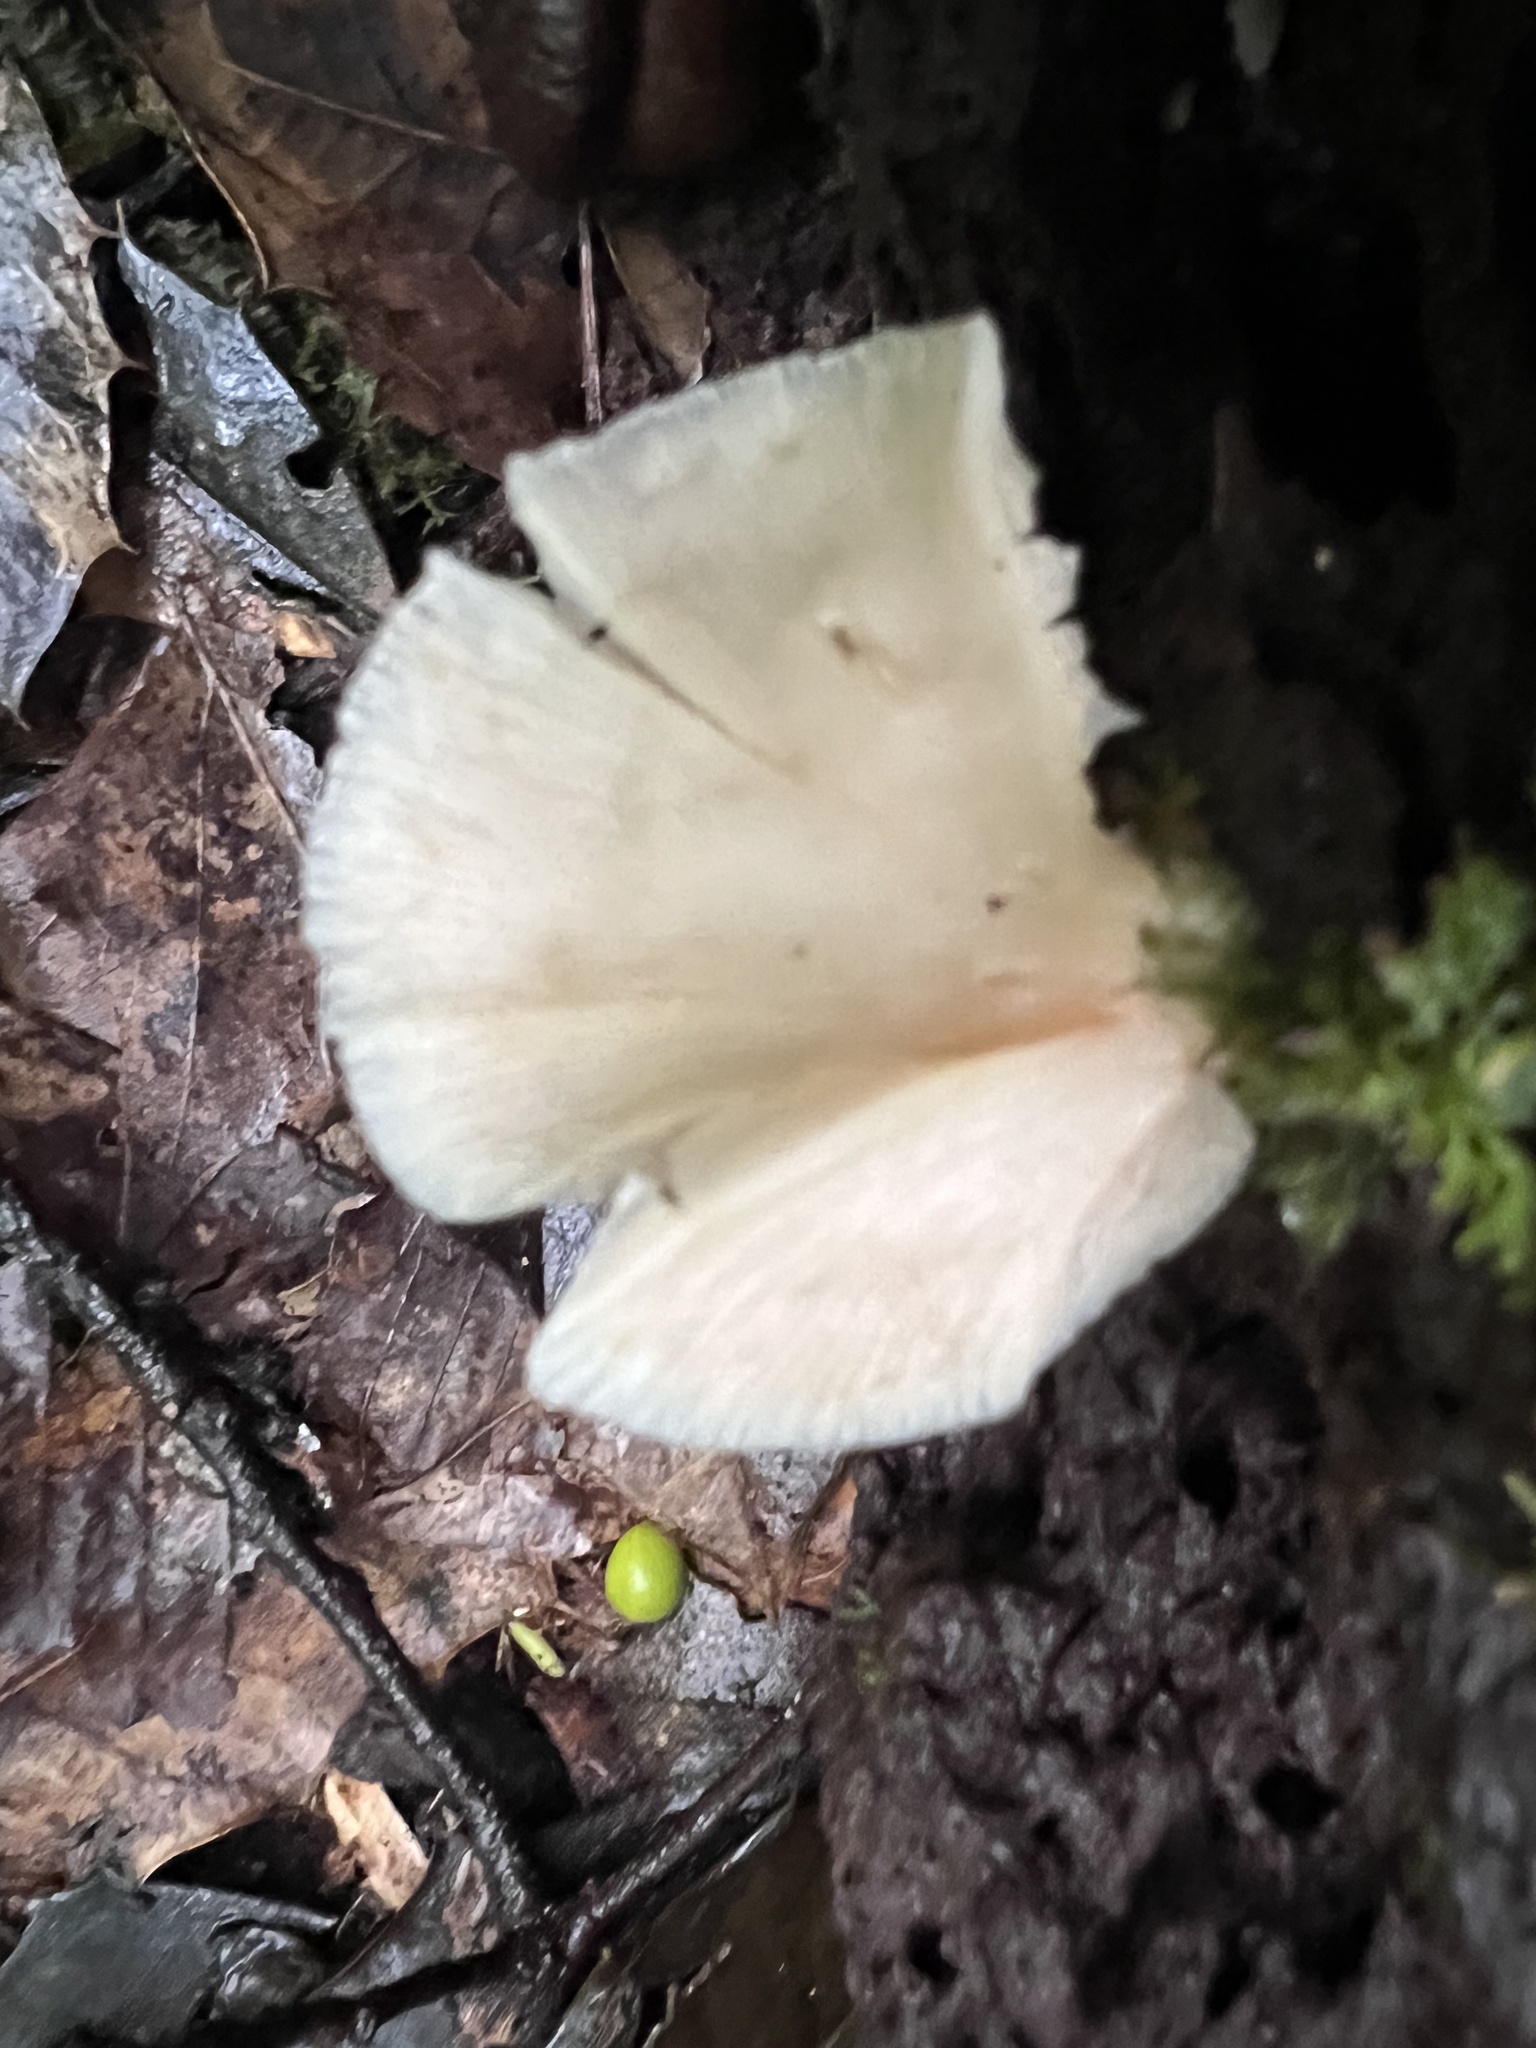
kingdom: Fungi
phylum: Basidiomycota
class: Agaricomycetes
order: Agaricales
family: Pleurotaceae
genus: Pleurotus
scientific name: Pleurotus pulmonarius
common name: Pale oyster
